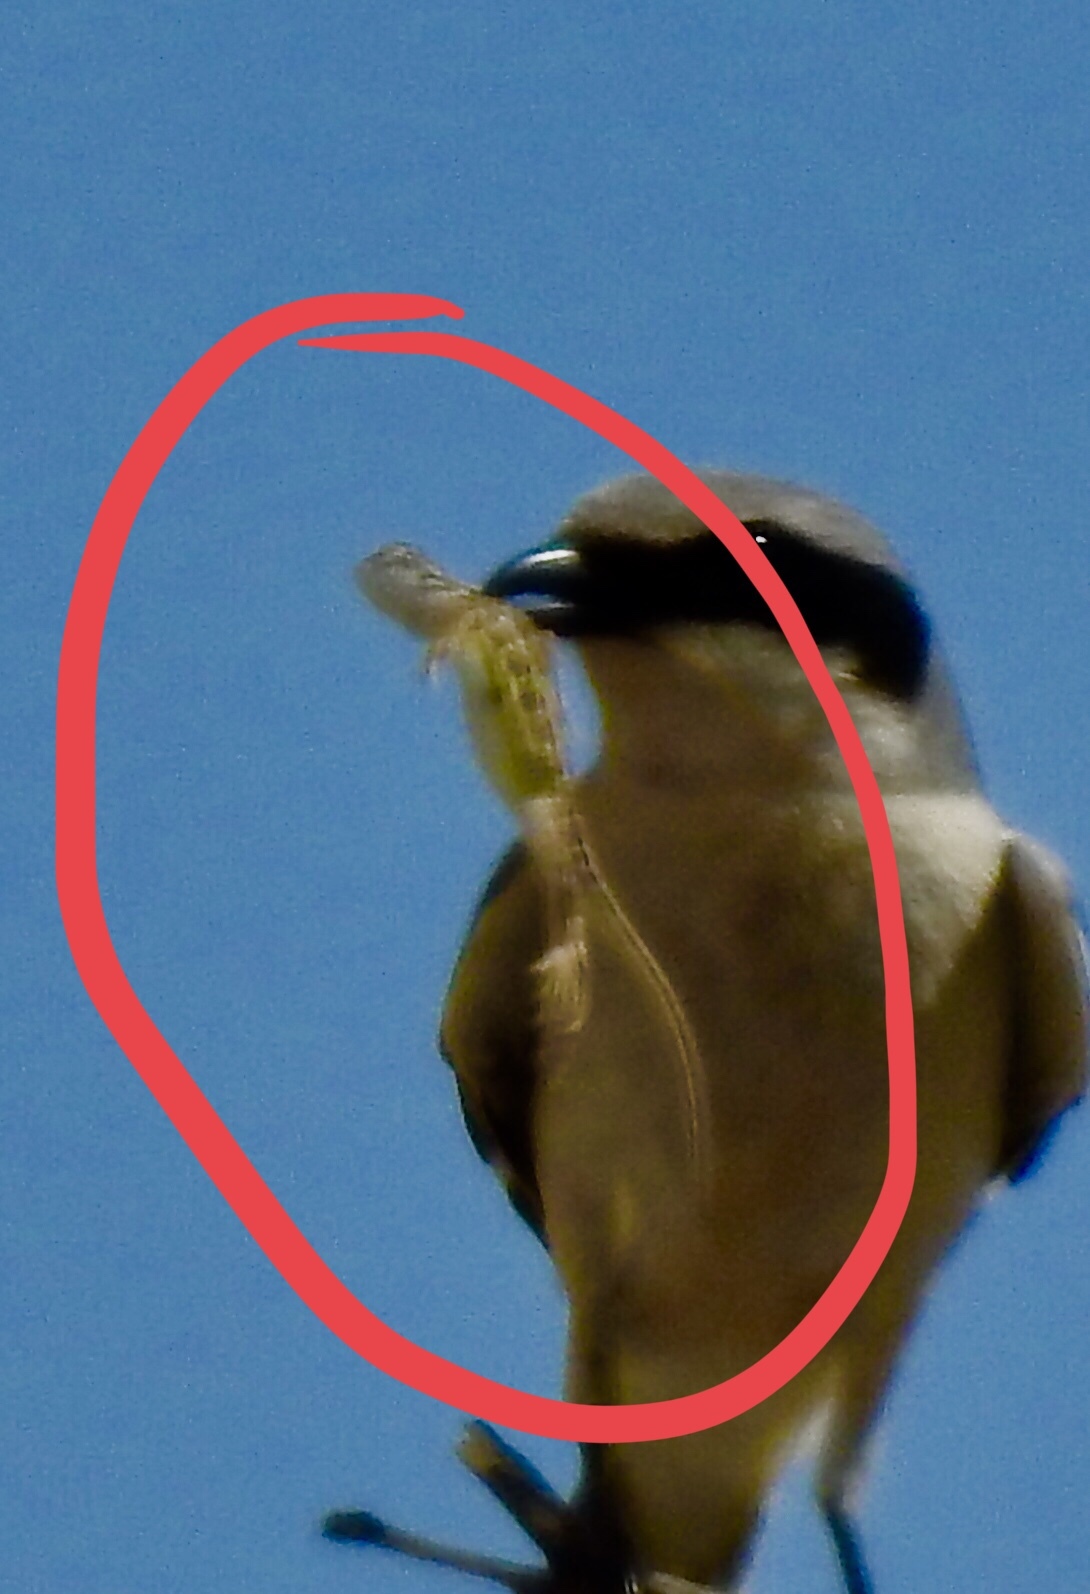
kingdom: Animalia
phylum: Chordata
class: Squamata
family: Phrynosomatidae
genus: Holbrookia
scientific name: Holbrookia maculata
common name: Lesser earless lizard
